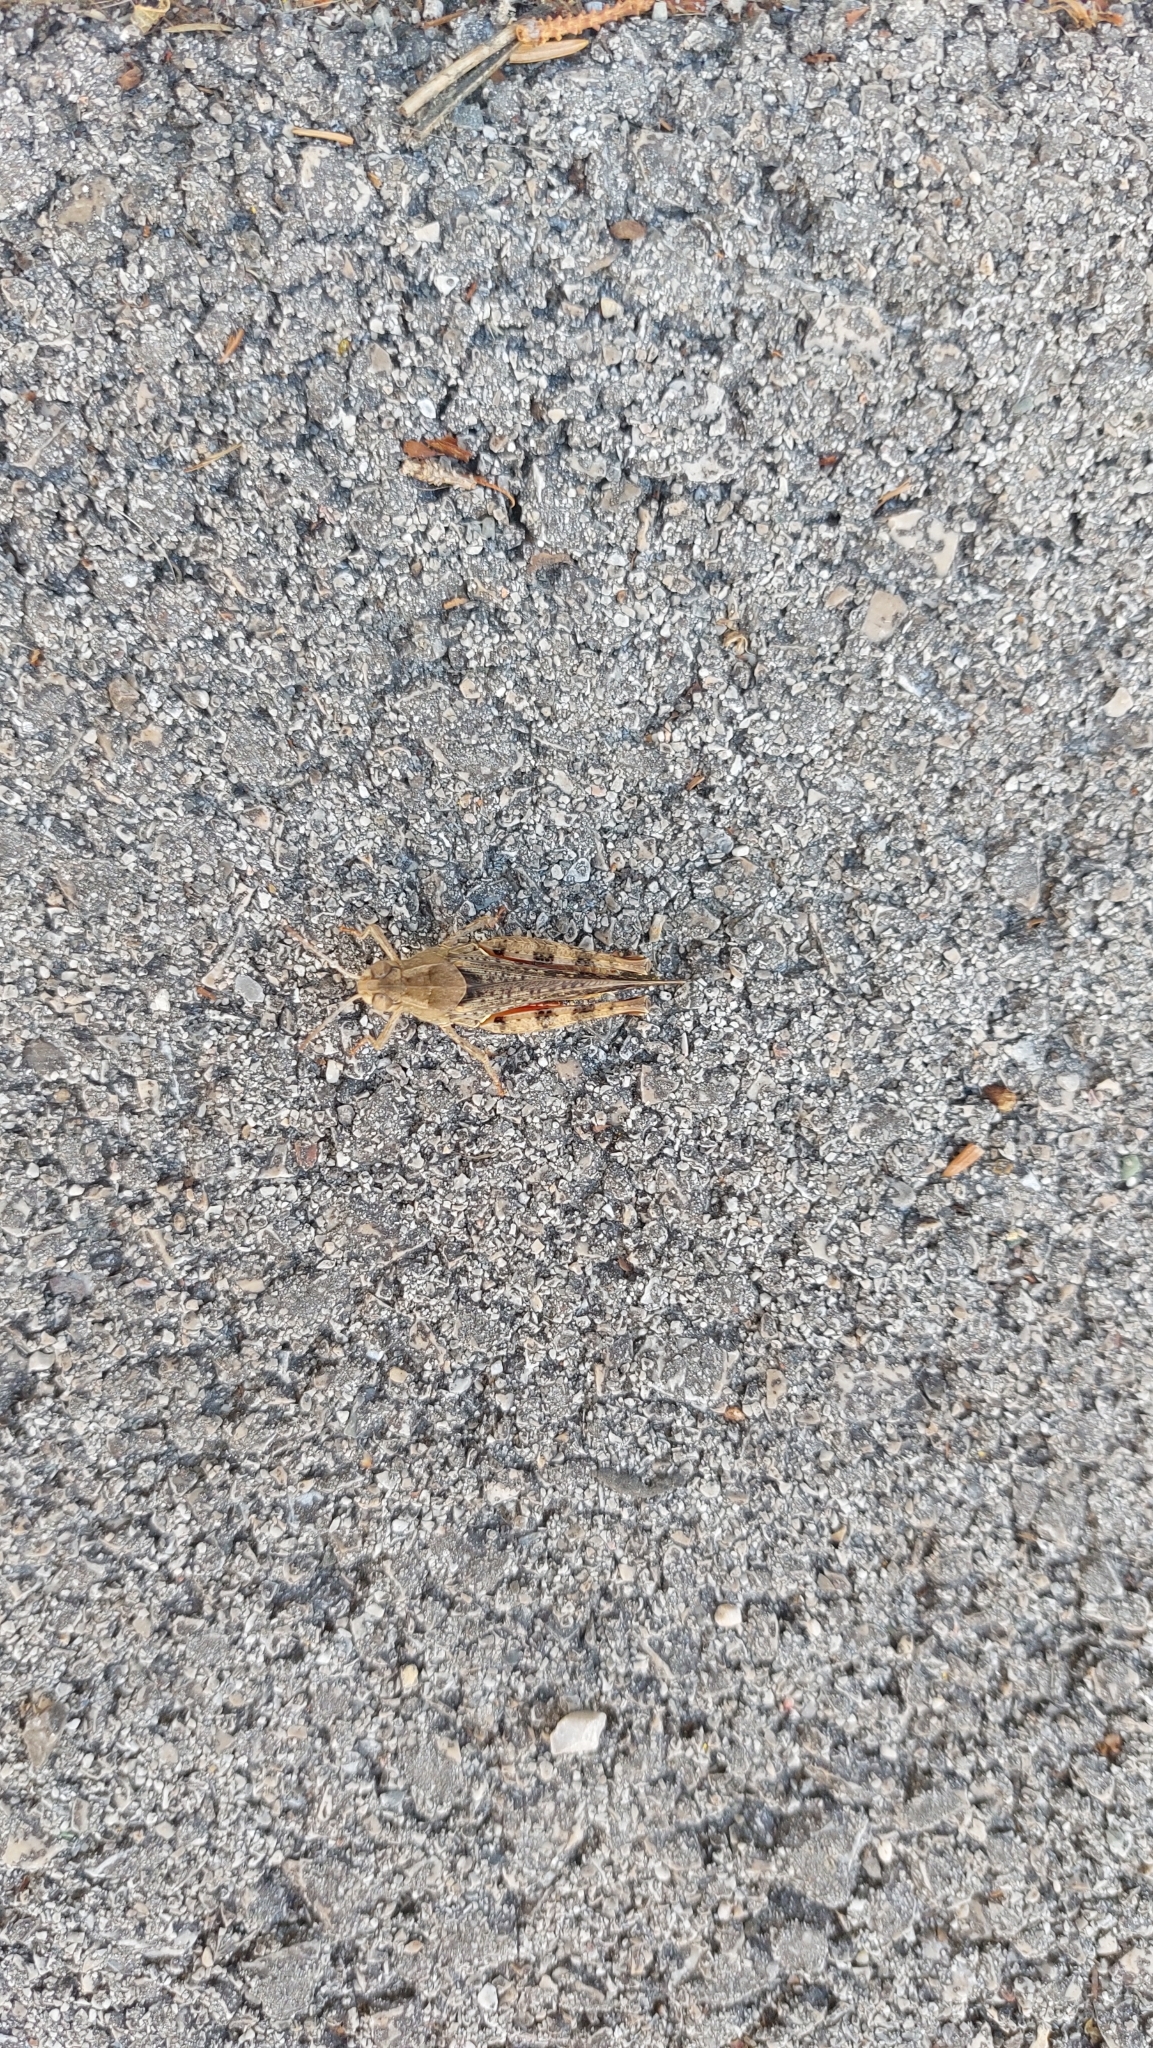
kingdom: Animalia
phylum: Arthropoda
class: Insecta
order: Orthoptera
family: Acrididae
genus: Calliptamus
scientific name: Calliptamus italicus
